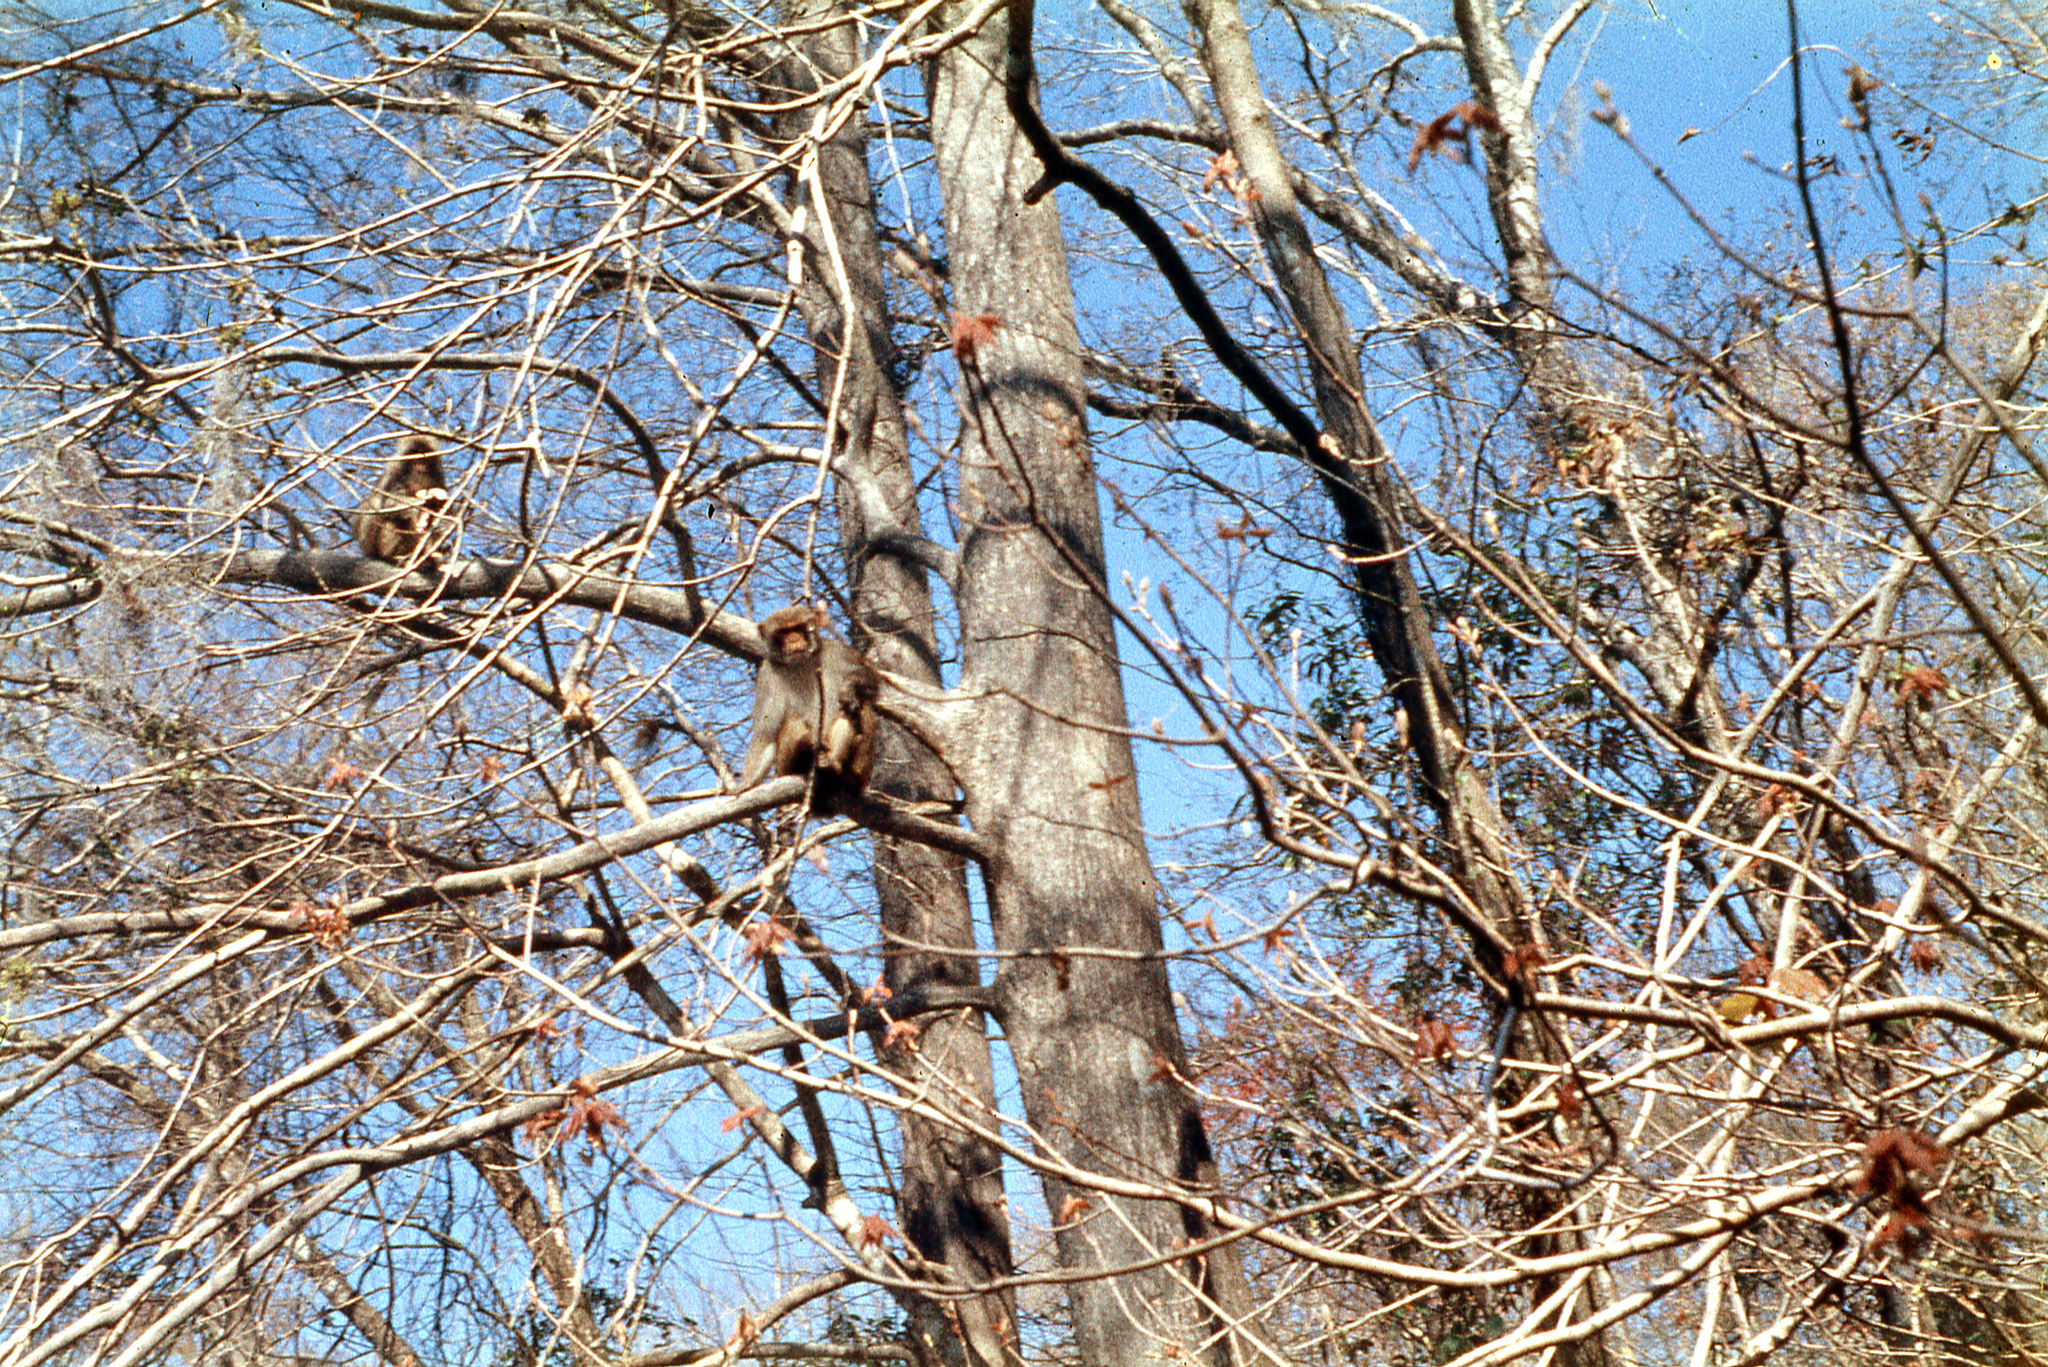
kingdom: Animalia
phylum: Chordata
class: Mammalia
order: Primates
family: Cercopithecidae
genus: Macaca
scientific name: Macaca mulatta
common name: Rhesus monkey
